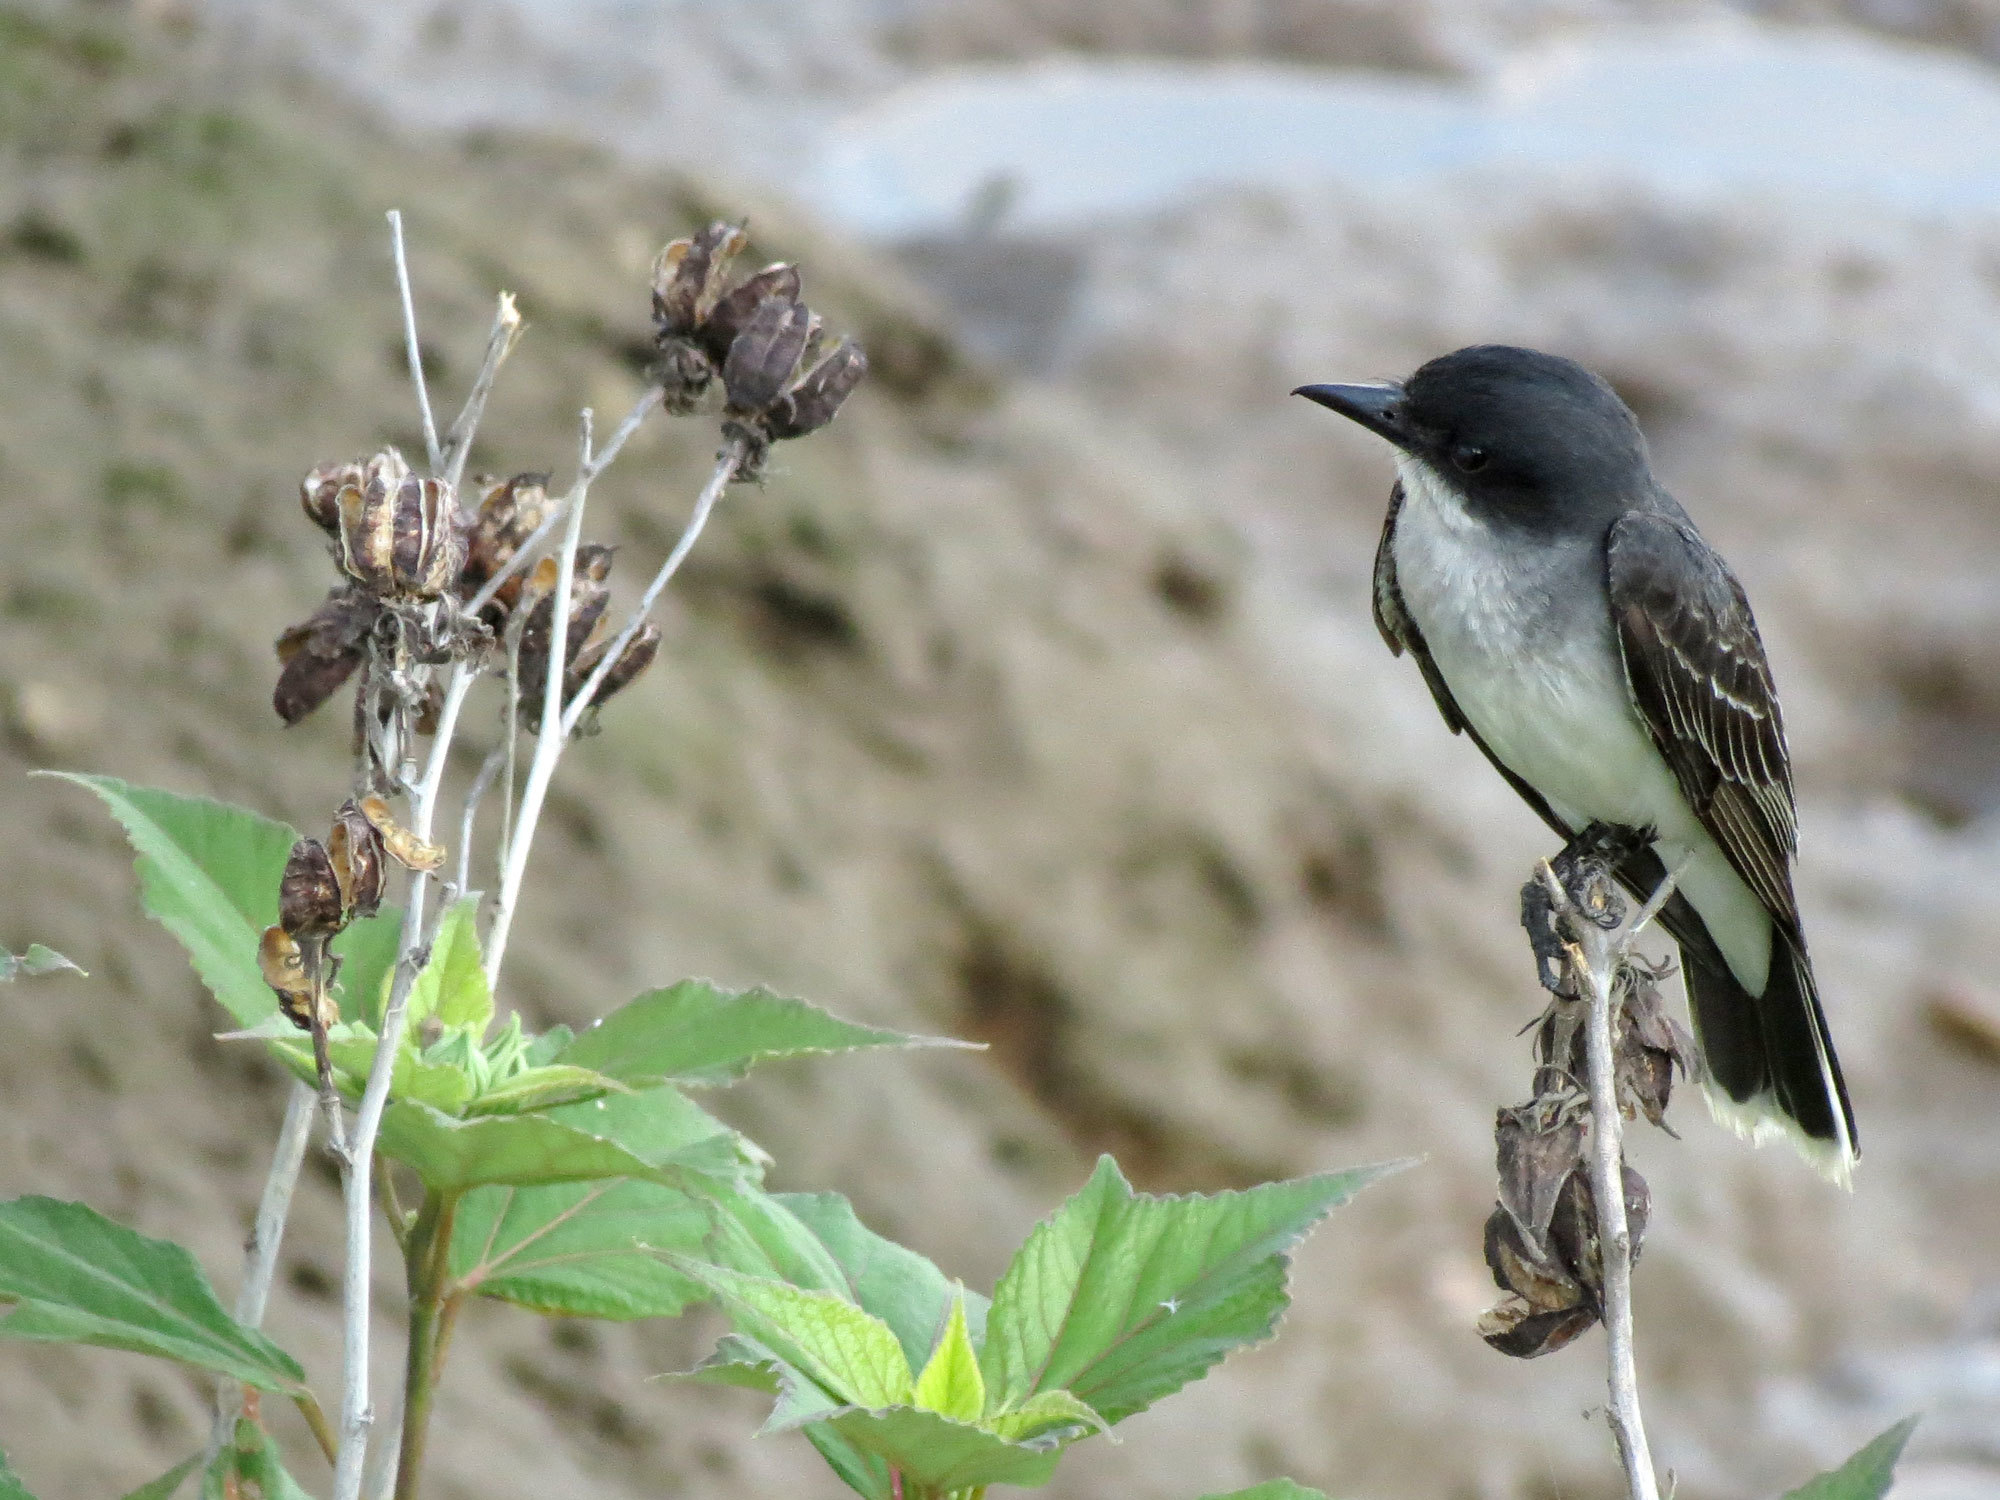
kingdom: Animalia
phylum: Chordata
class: Aves
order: Passeriformes
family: Tyrannidae
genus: Tyrannus
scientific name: Tyrannus tyrannus
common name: Eastern kingbird
